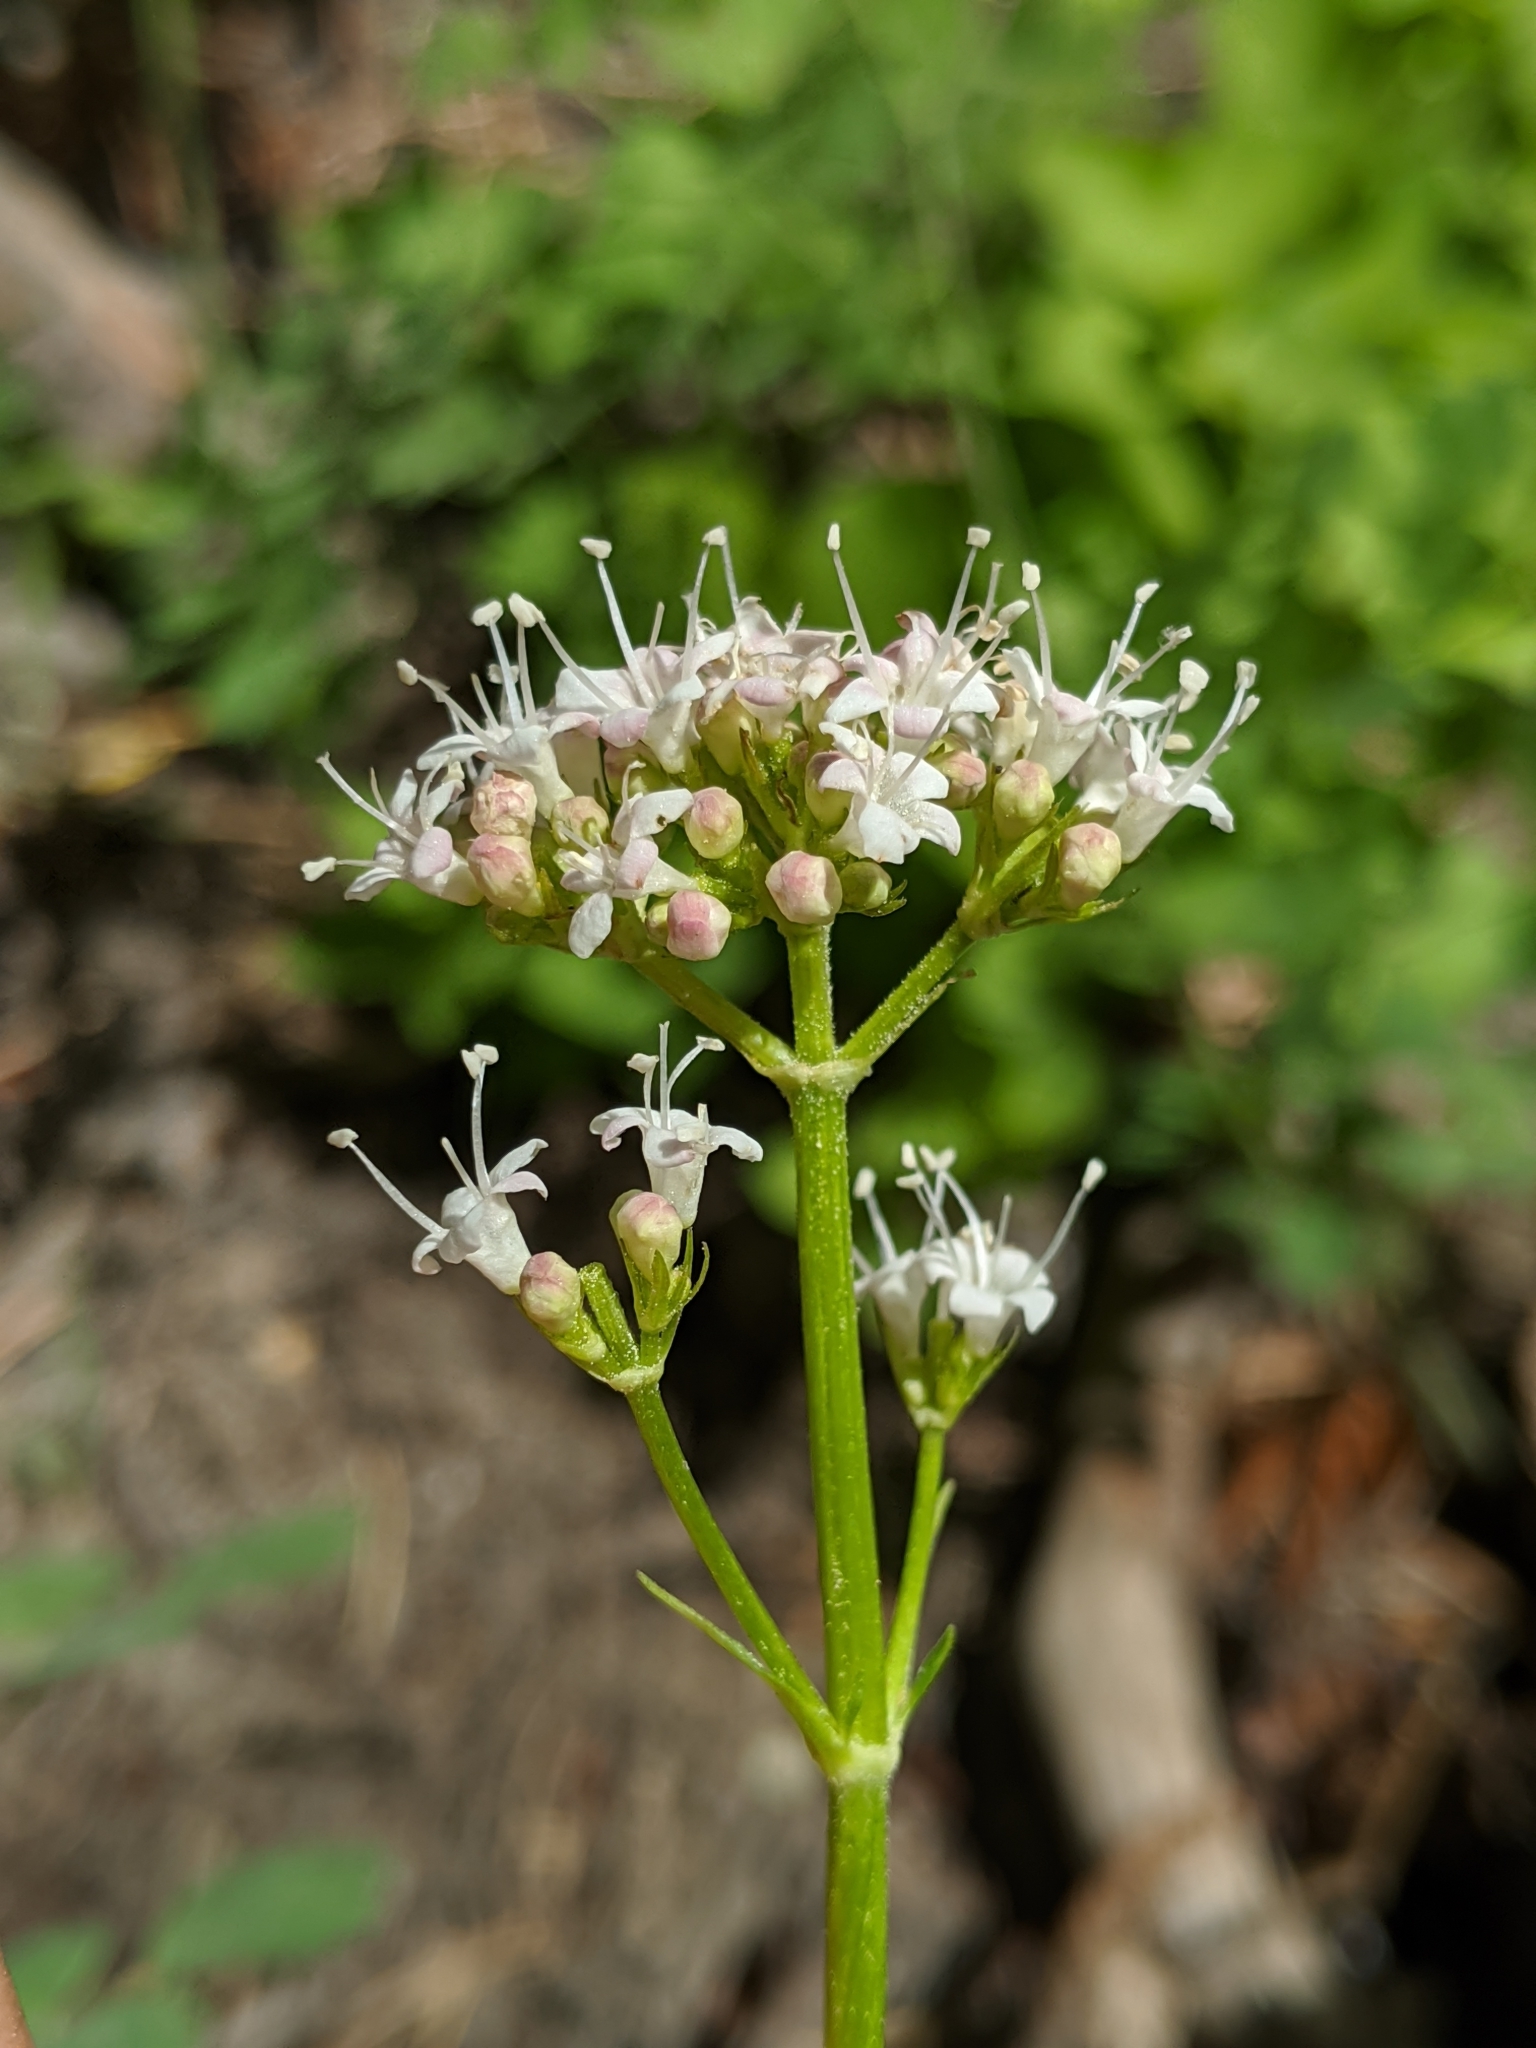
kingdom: Plantae
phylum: Tracheophyta
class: Magnoliopsida
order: Dipsacales
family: Caprifoliaceae
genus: Valeriana
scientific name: Valeriana californica
